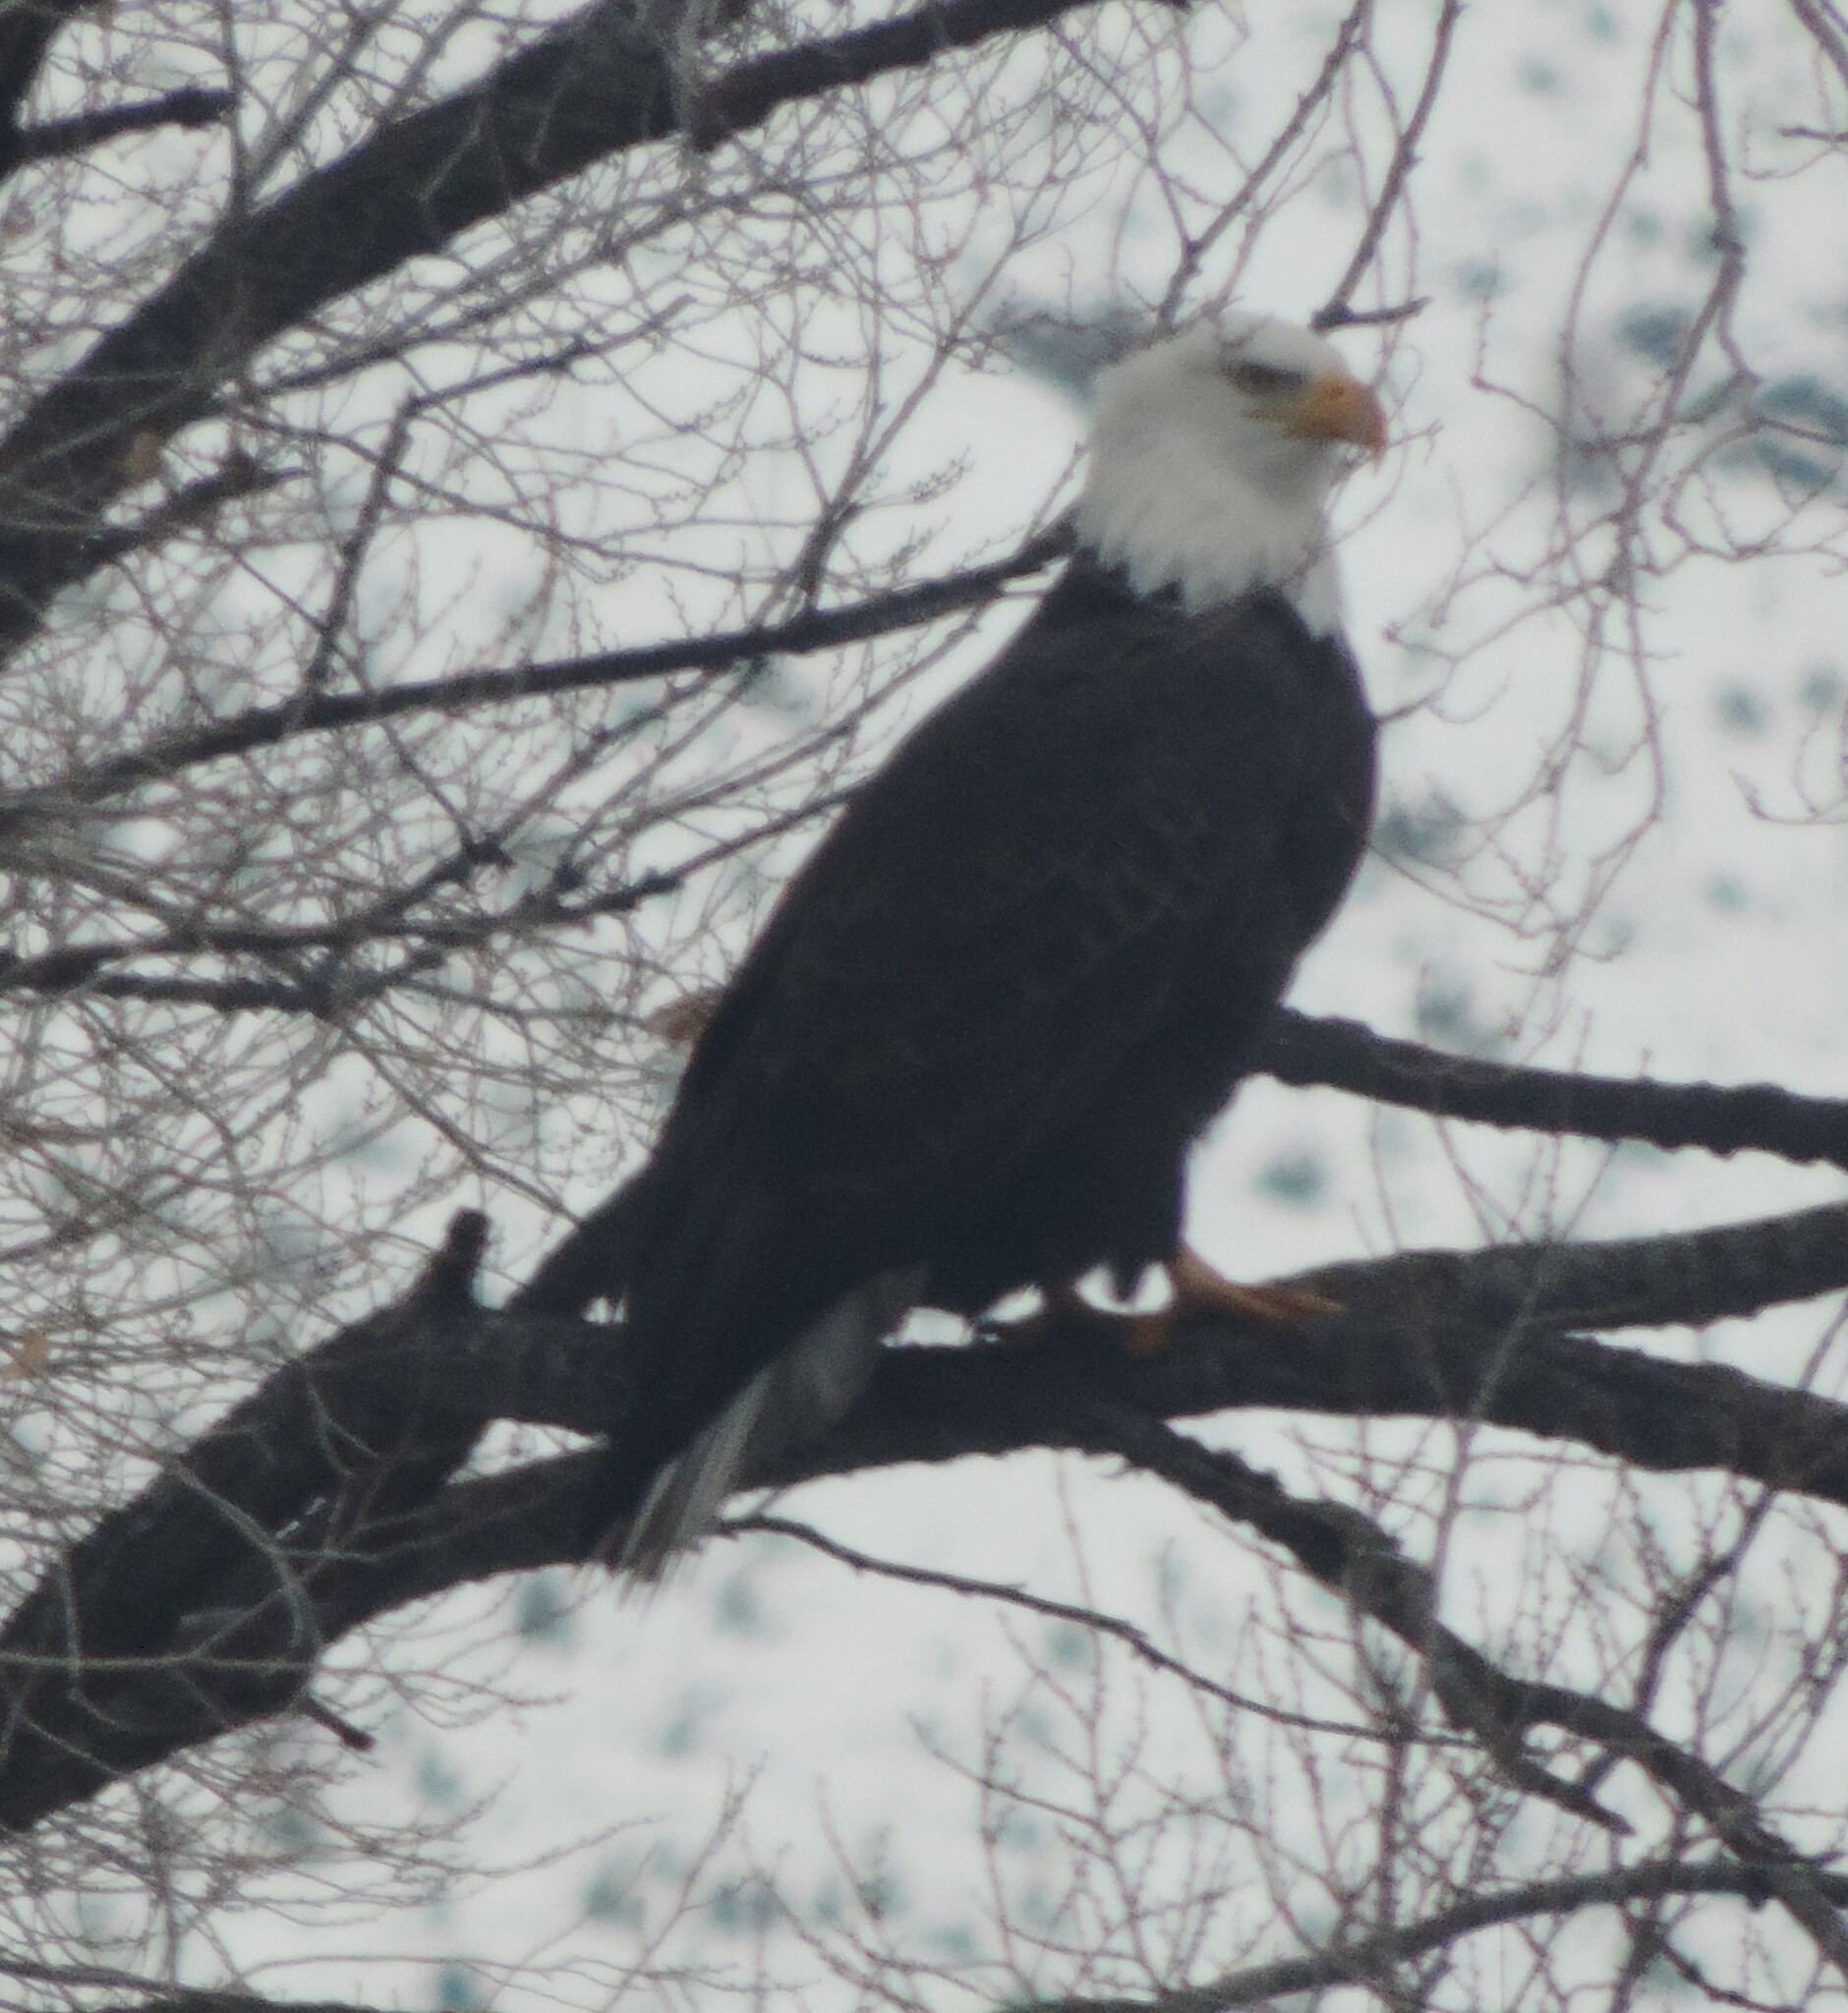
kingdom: Animalia
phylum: Chordata
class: Aves
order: Accipitriformes
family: Accipitridae
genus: Haliaeetus
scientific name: Haliaeetus leucocephalus
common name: Bald eagle
